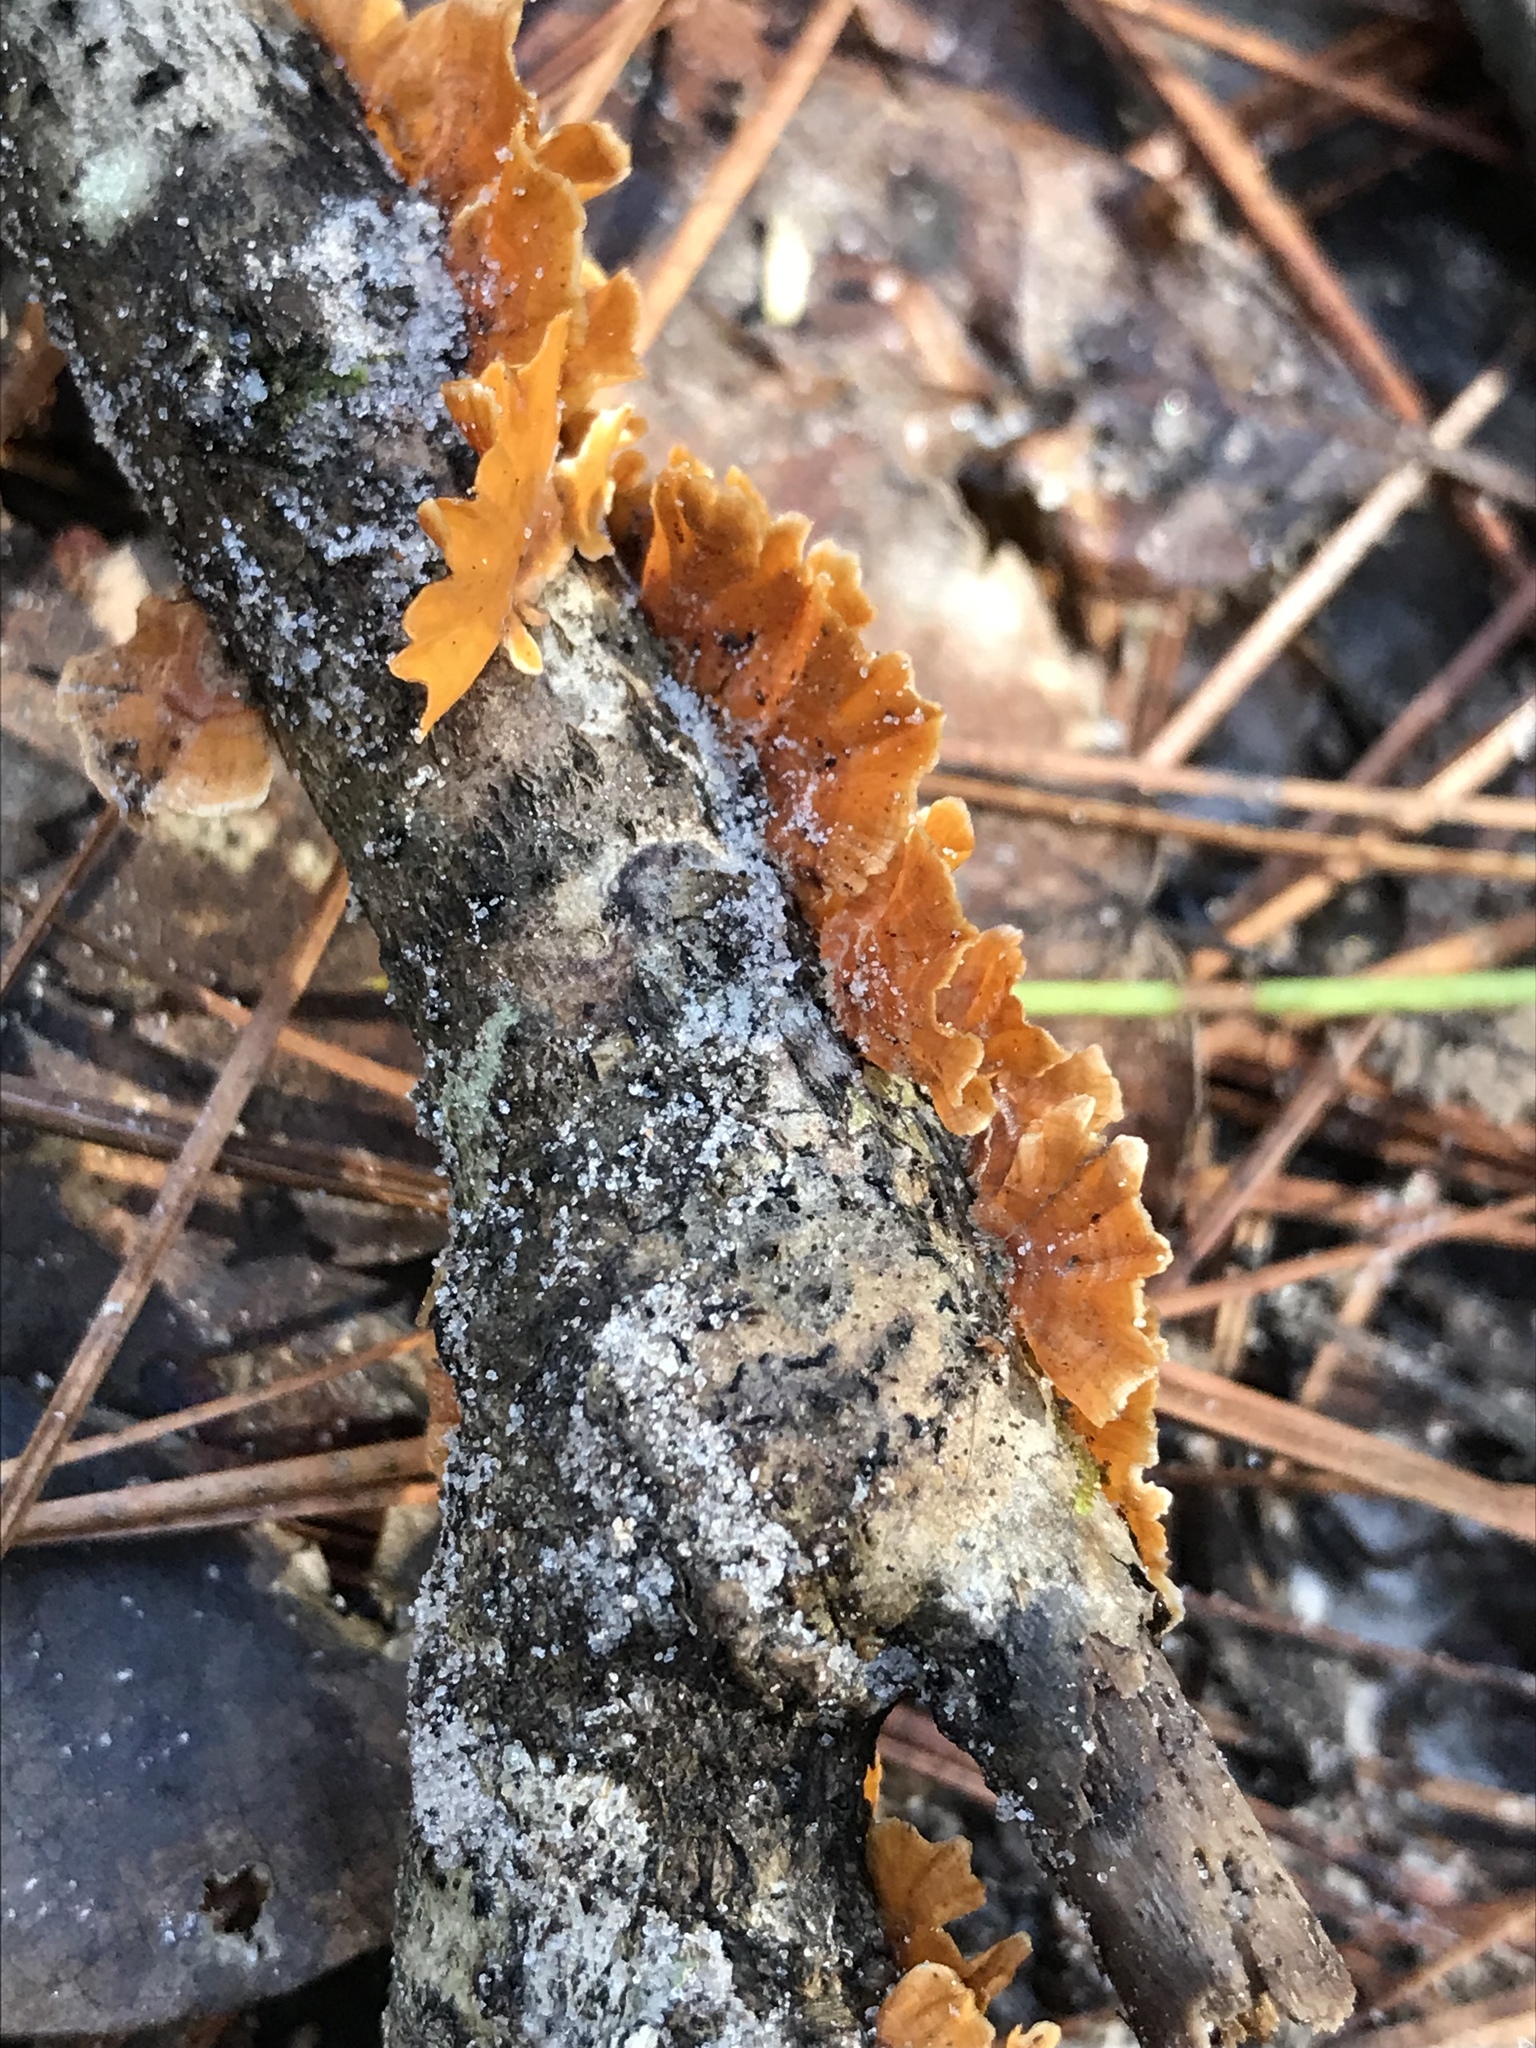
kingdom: Fungi
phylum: Basidiomycota
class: Agaricomycetes
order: Russulales
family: Stereaceae
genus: Stereum
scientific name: Stereum complicatum
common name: Crowded parchment
